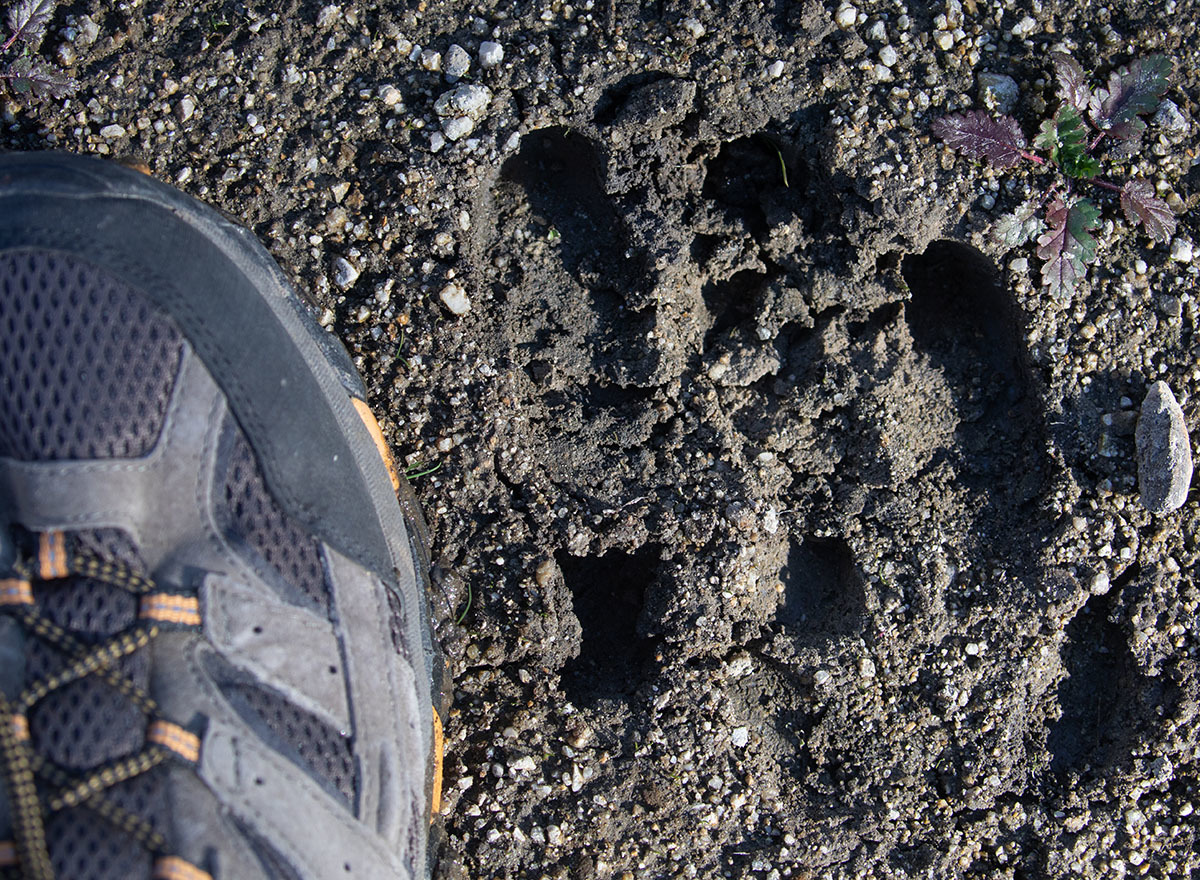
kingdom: Animalia
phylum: Chordata
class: Mammalia
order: Artiodactyla
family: Suidae
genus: Sus
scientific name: Sus scrofa
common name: Wild boar
